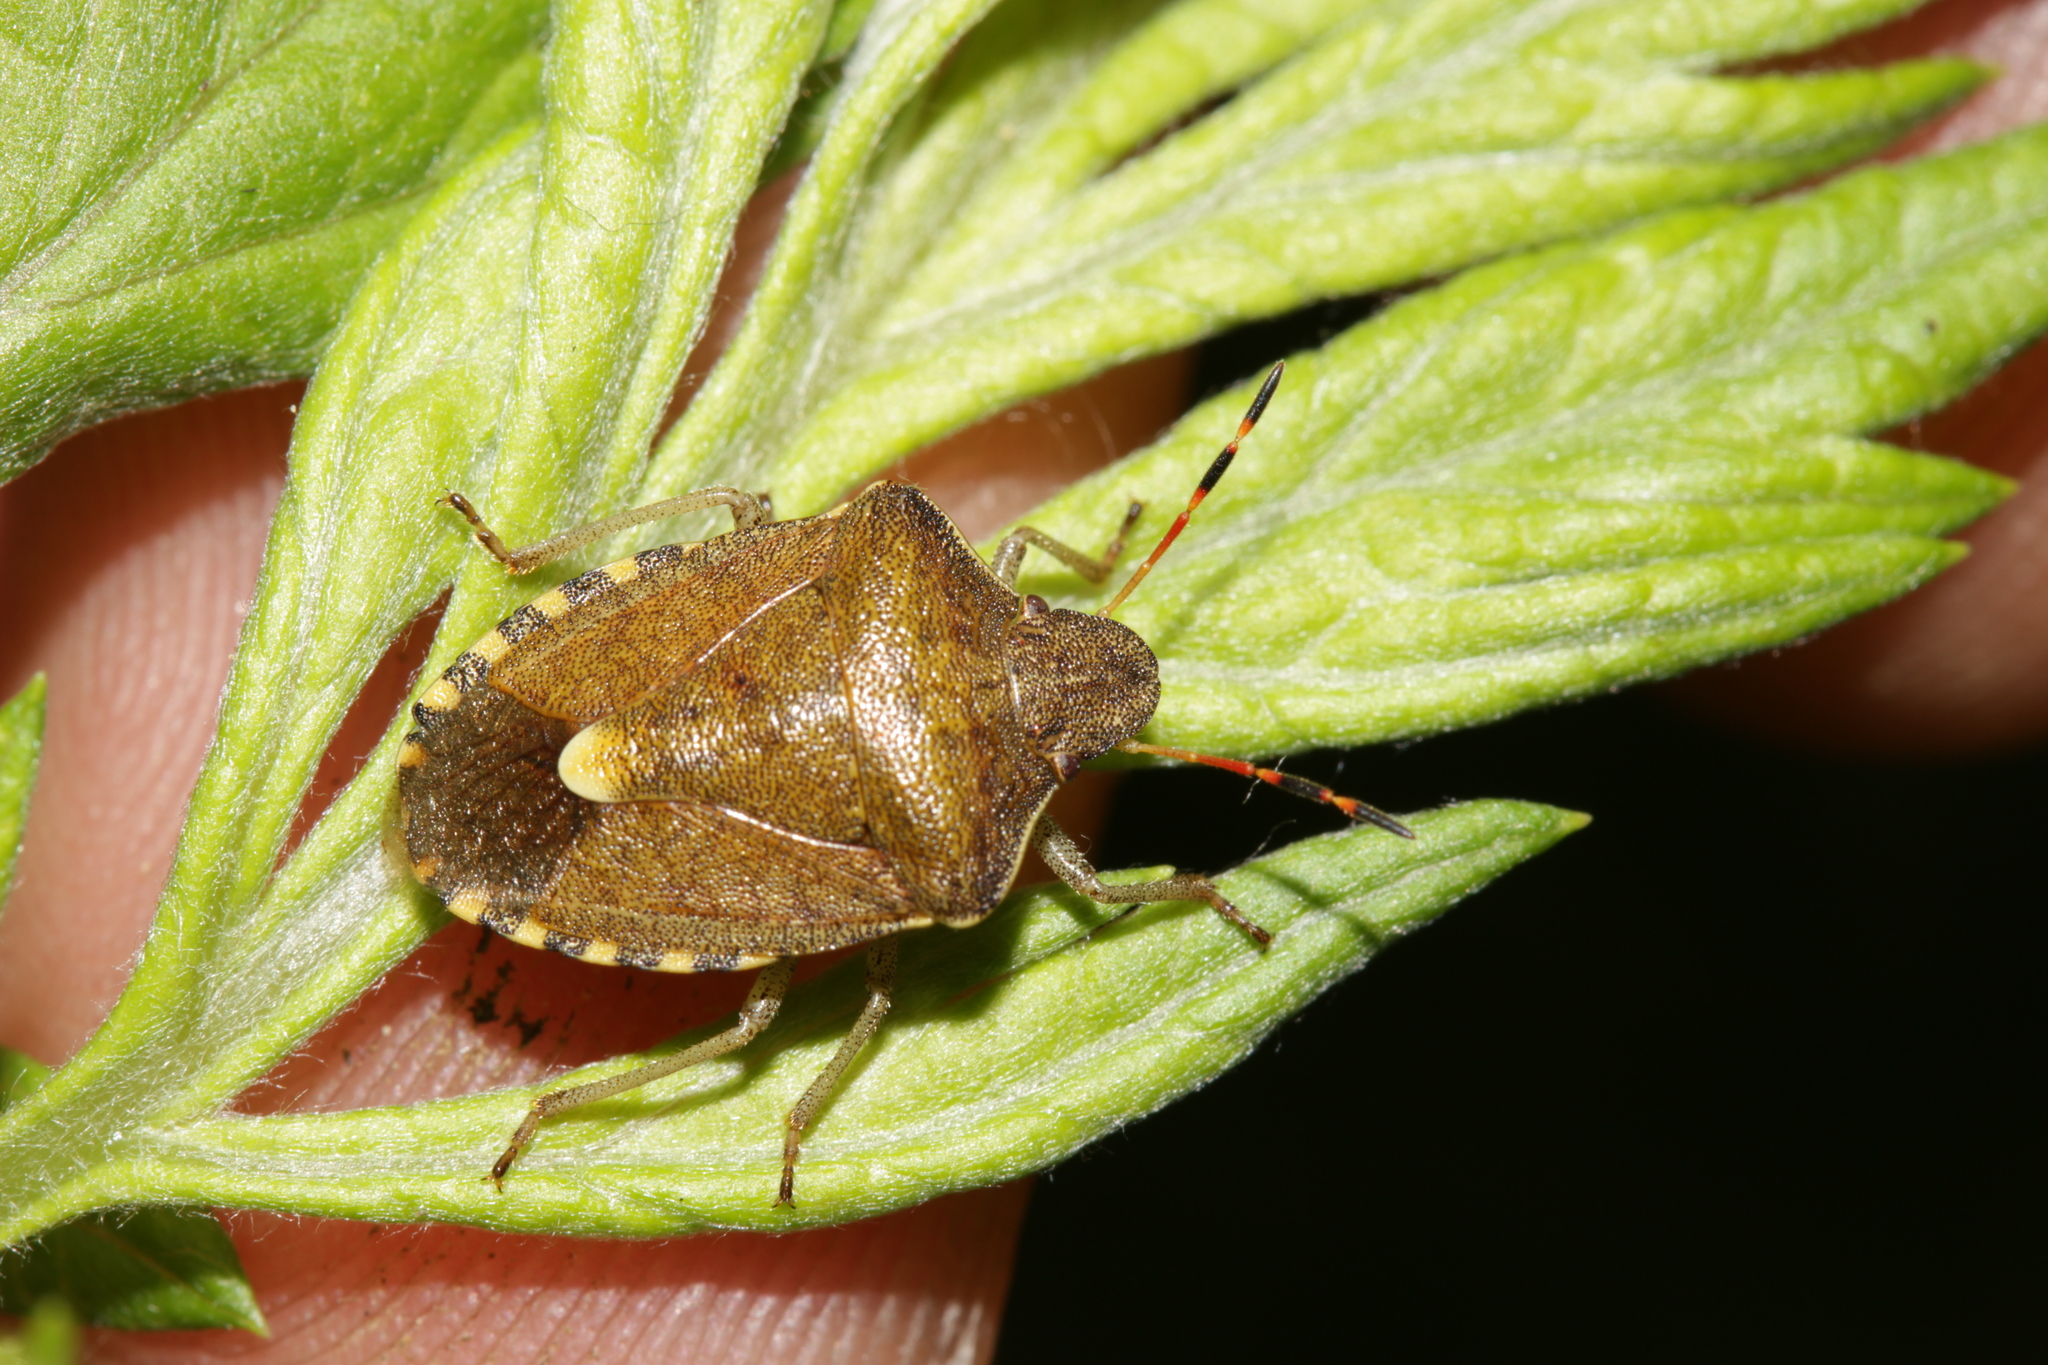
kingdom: Animalia
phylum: Arthropoda
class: Insecta
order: Hemiptera
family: Pentatomidae
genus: Holcostethus
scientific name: Holcostethus strictus
